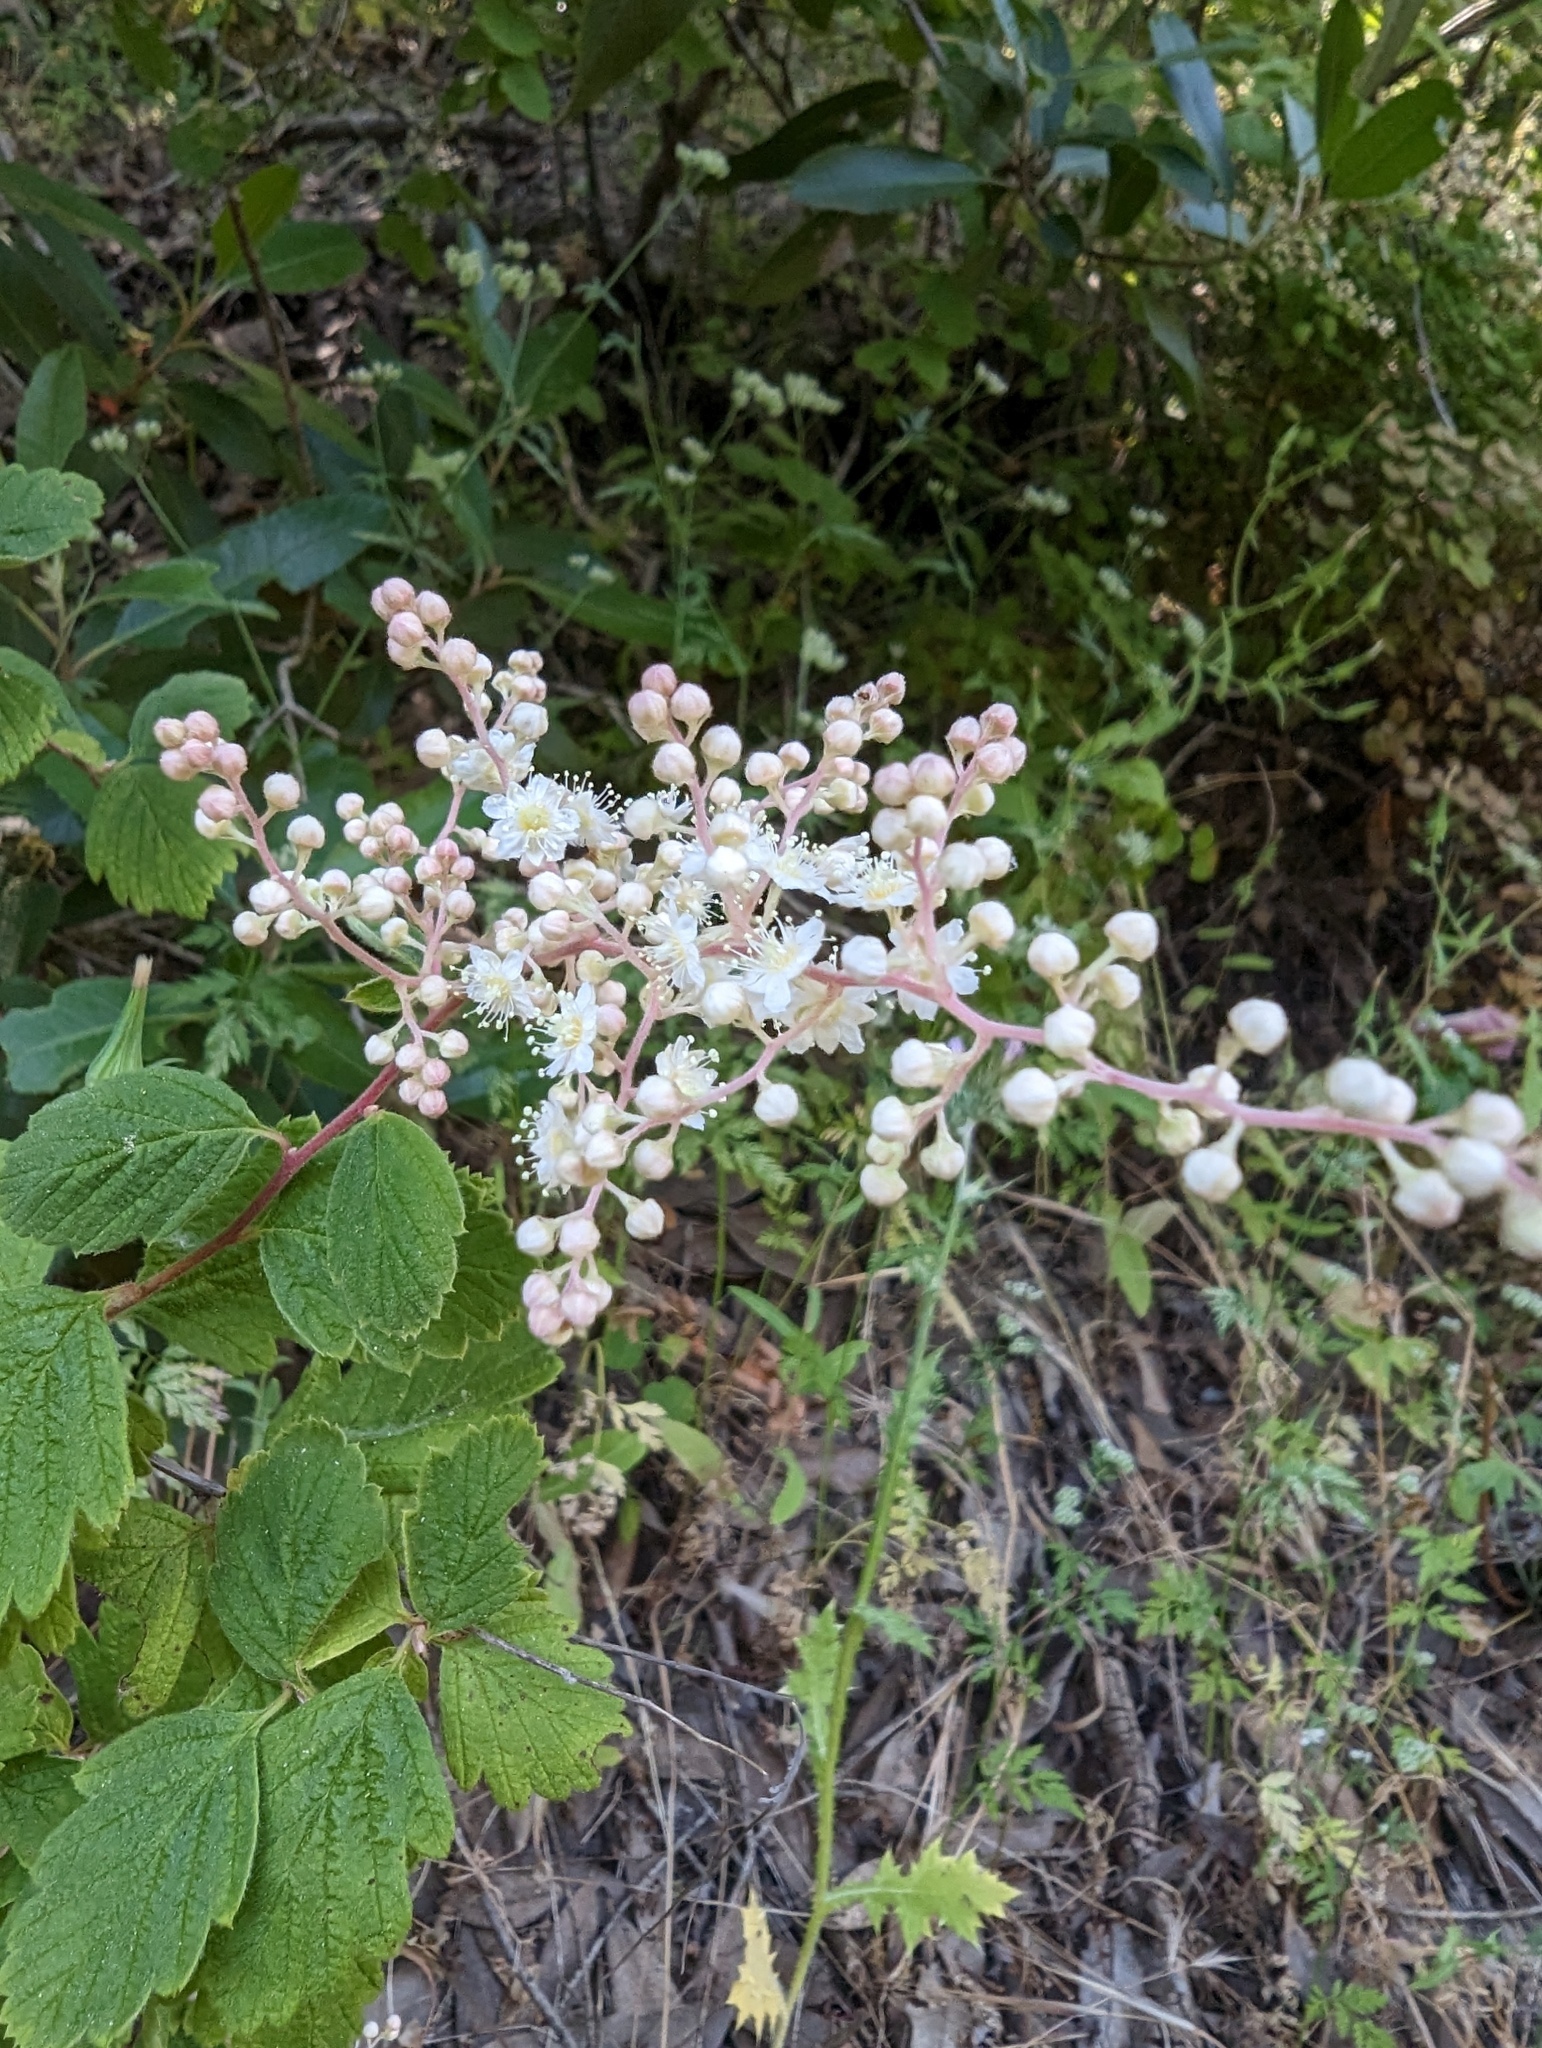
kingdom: Plantae
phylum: Tracheophyta
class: Magnoliopsida
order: Rosales
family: Rosaceae
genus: Holodiscus
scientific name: Holodiscus discolor
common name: Oceanspray
